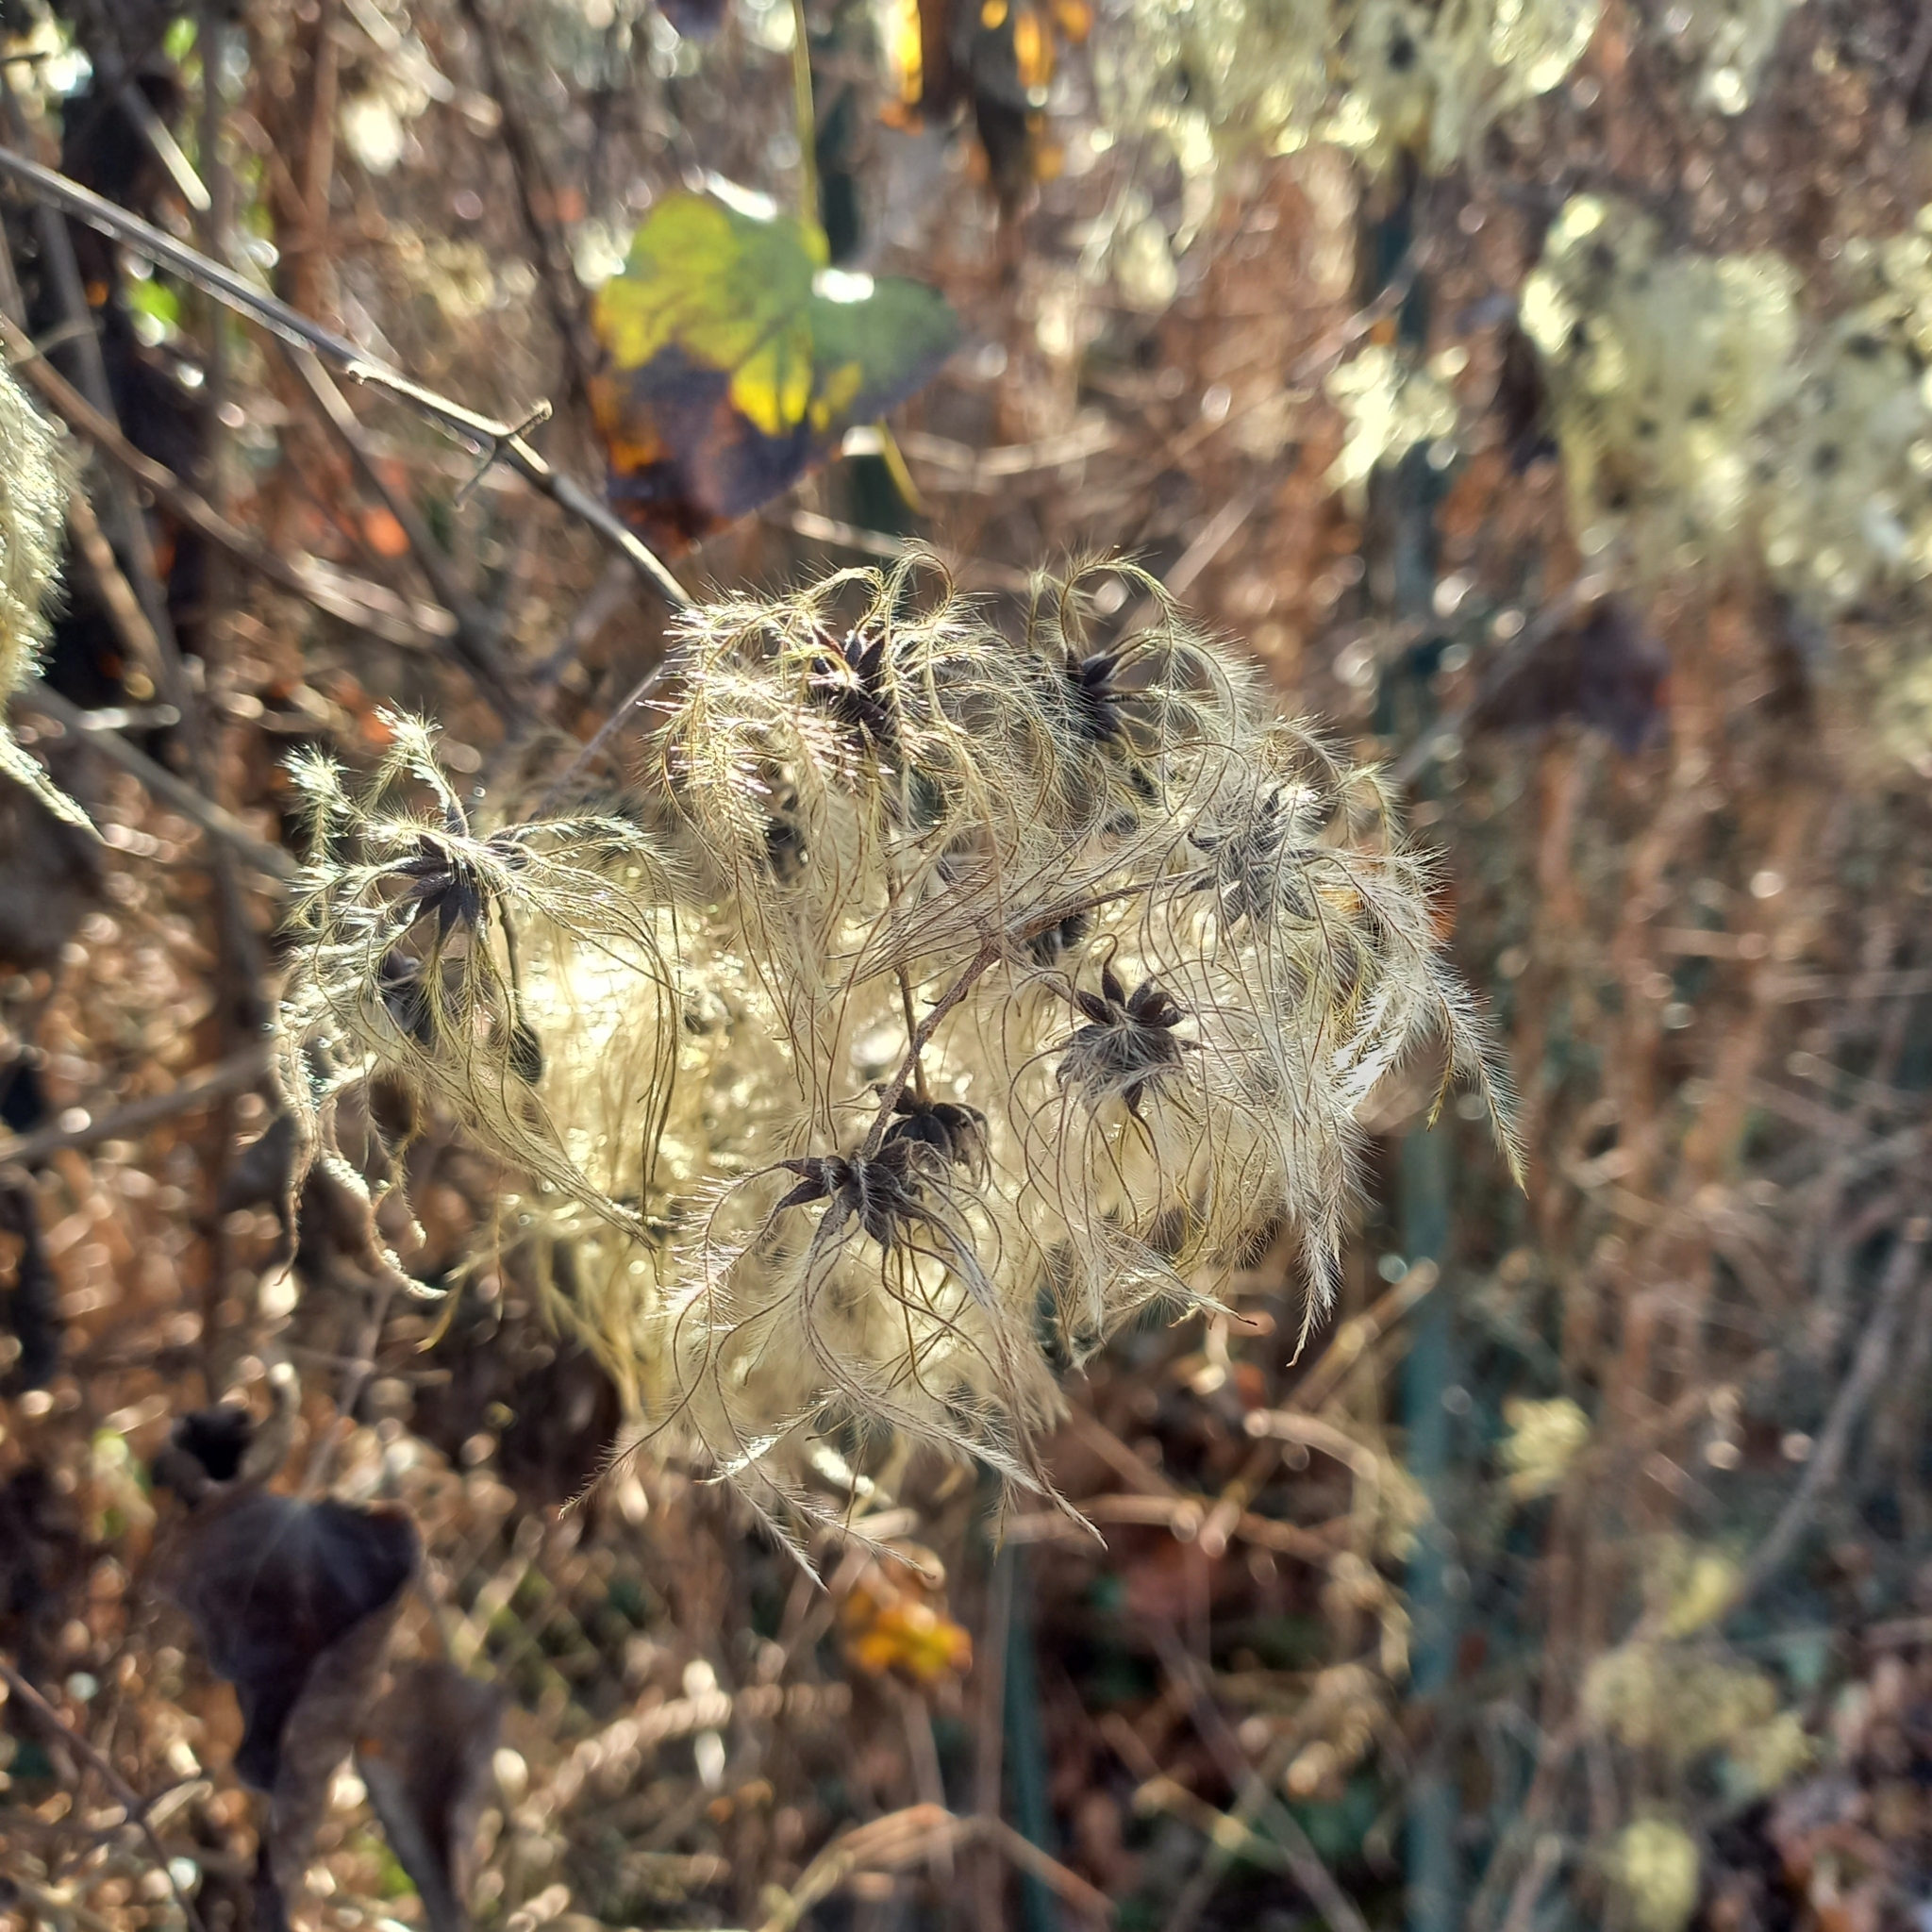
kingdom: Plantae
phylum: Tracheophyta
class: Magnoliopsida
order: Ranunculales
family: Ranunculaceae
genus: Clematis
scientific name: Clematis vitalba
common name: Evergreen clematis
